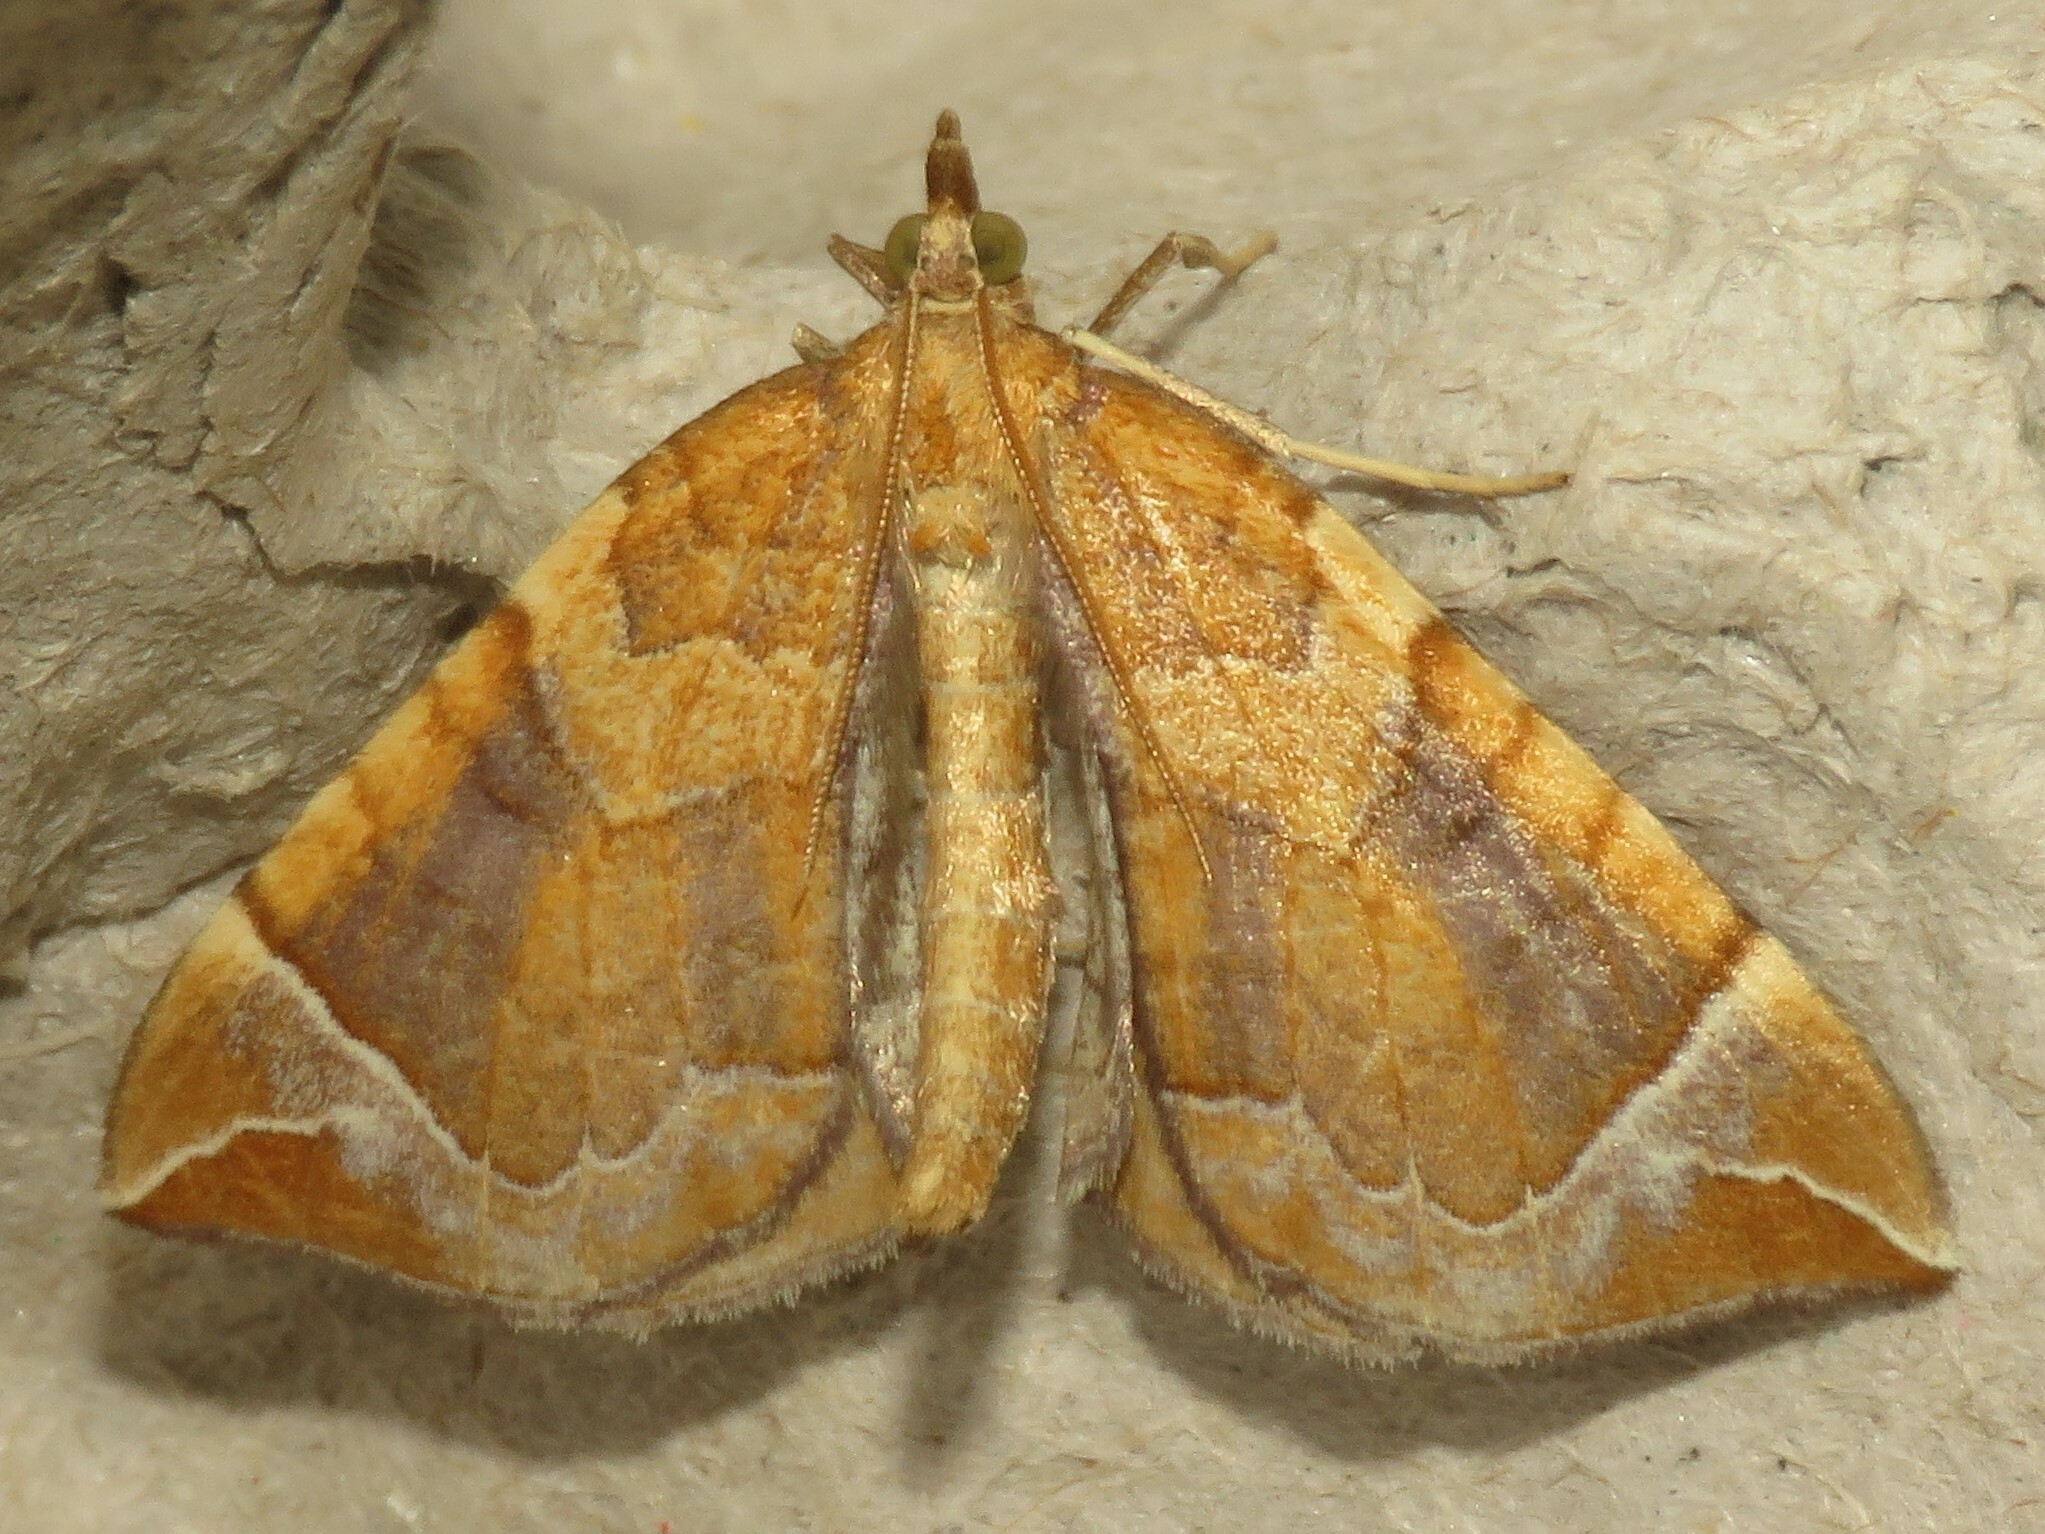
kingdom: Animalia
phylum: Arthropoda
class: Insecta
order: Lepidoptera
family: Geometridae
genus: Eulithis
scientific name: Eulithis testata
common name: Chevron
